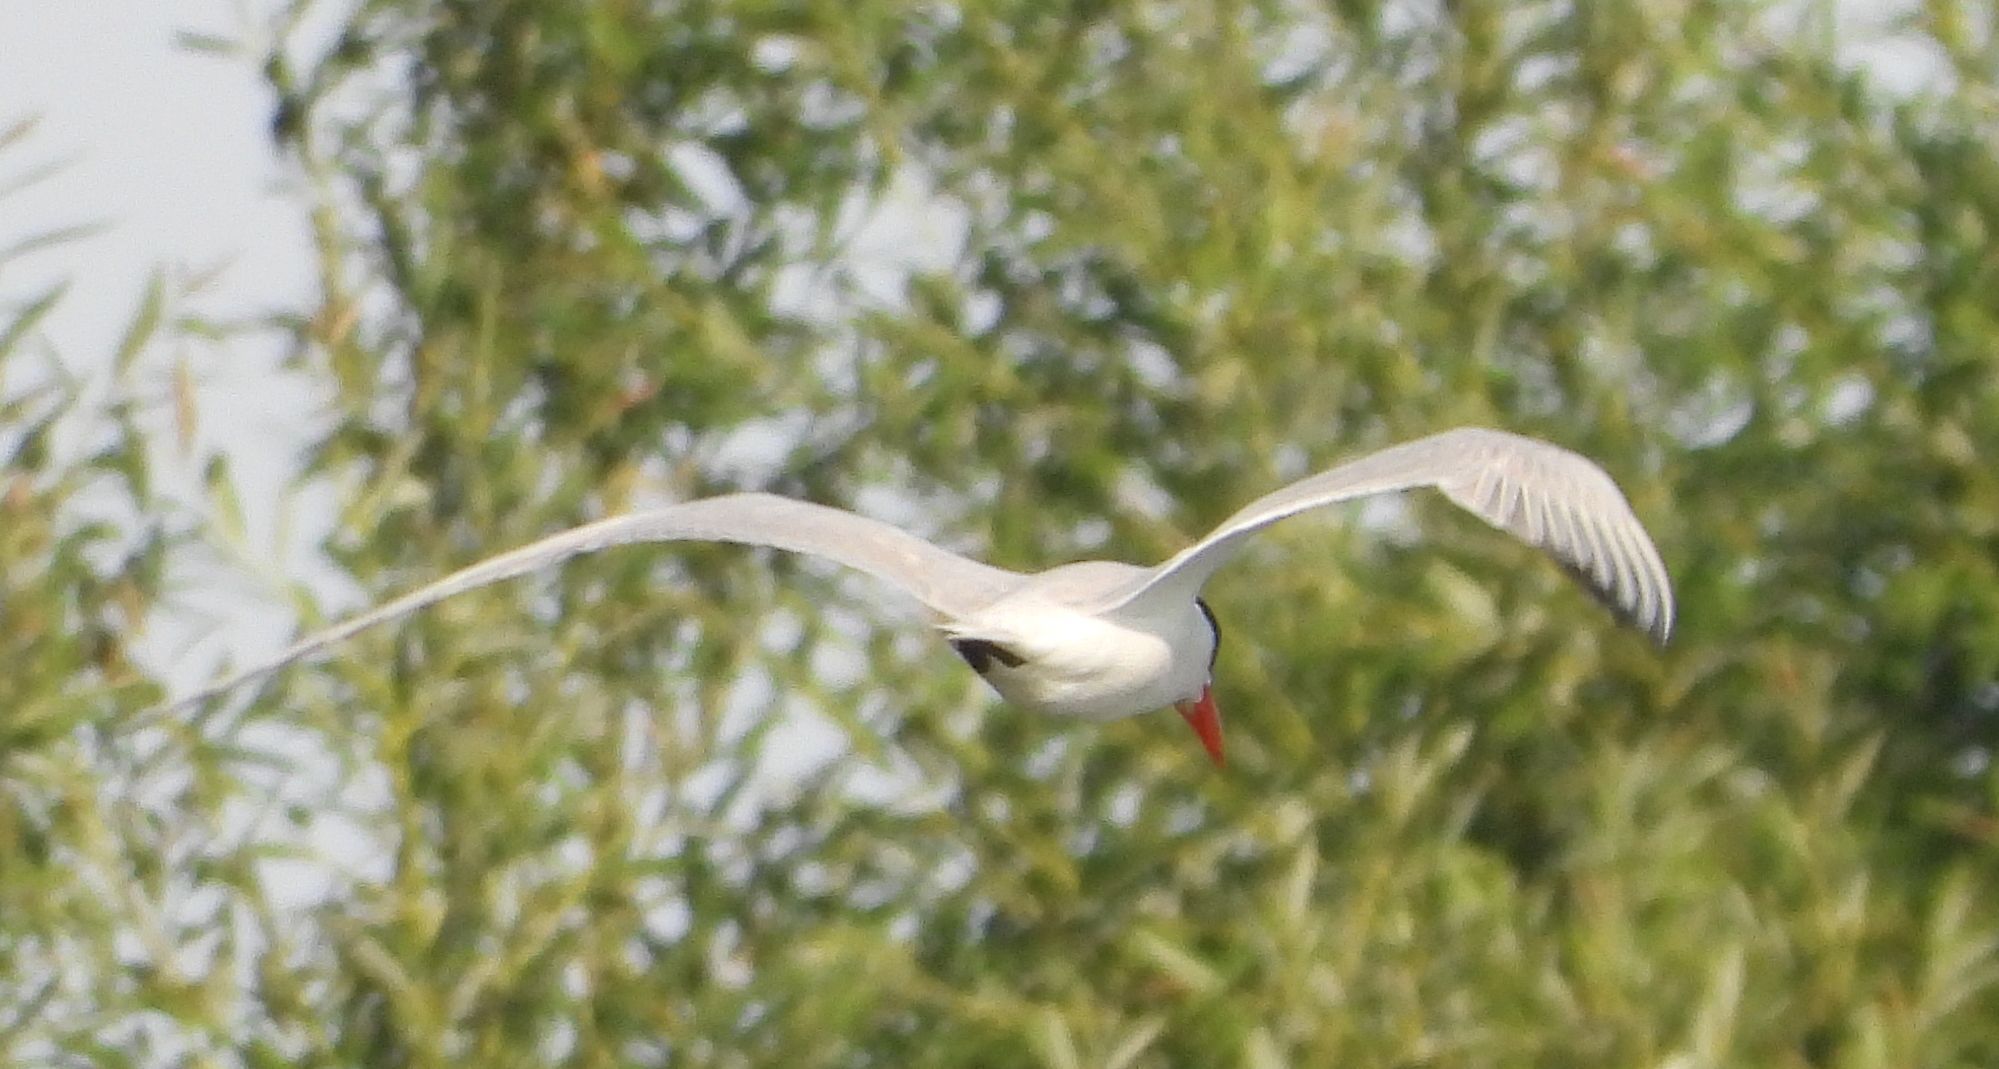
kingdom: Animalia
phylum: Chordata
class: Aves
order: Charadriiformes
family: Laridae
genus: Hydroprogne
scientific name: Hydroprogne caspia
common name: Caspian tern
